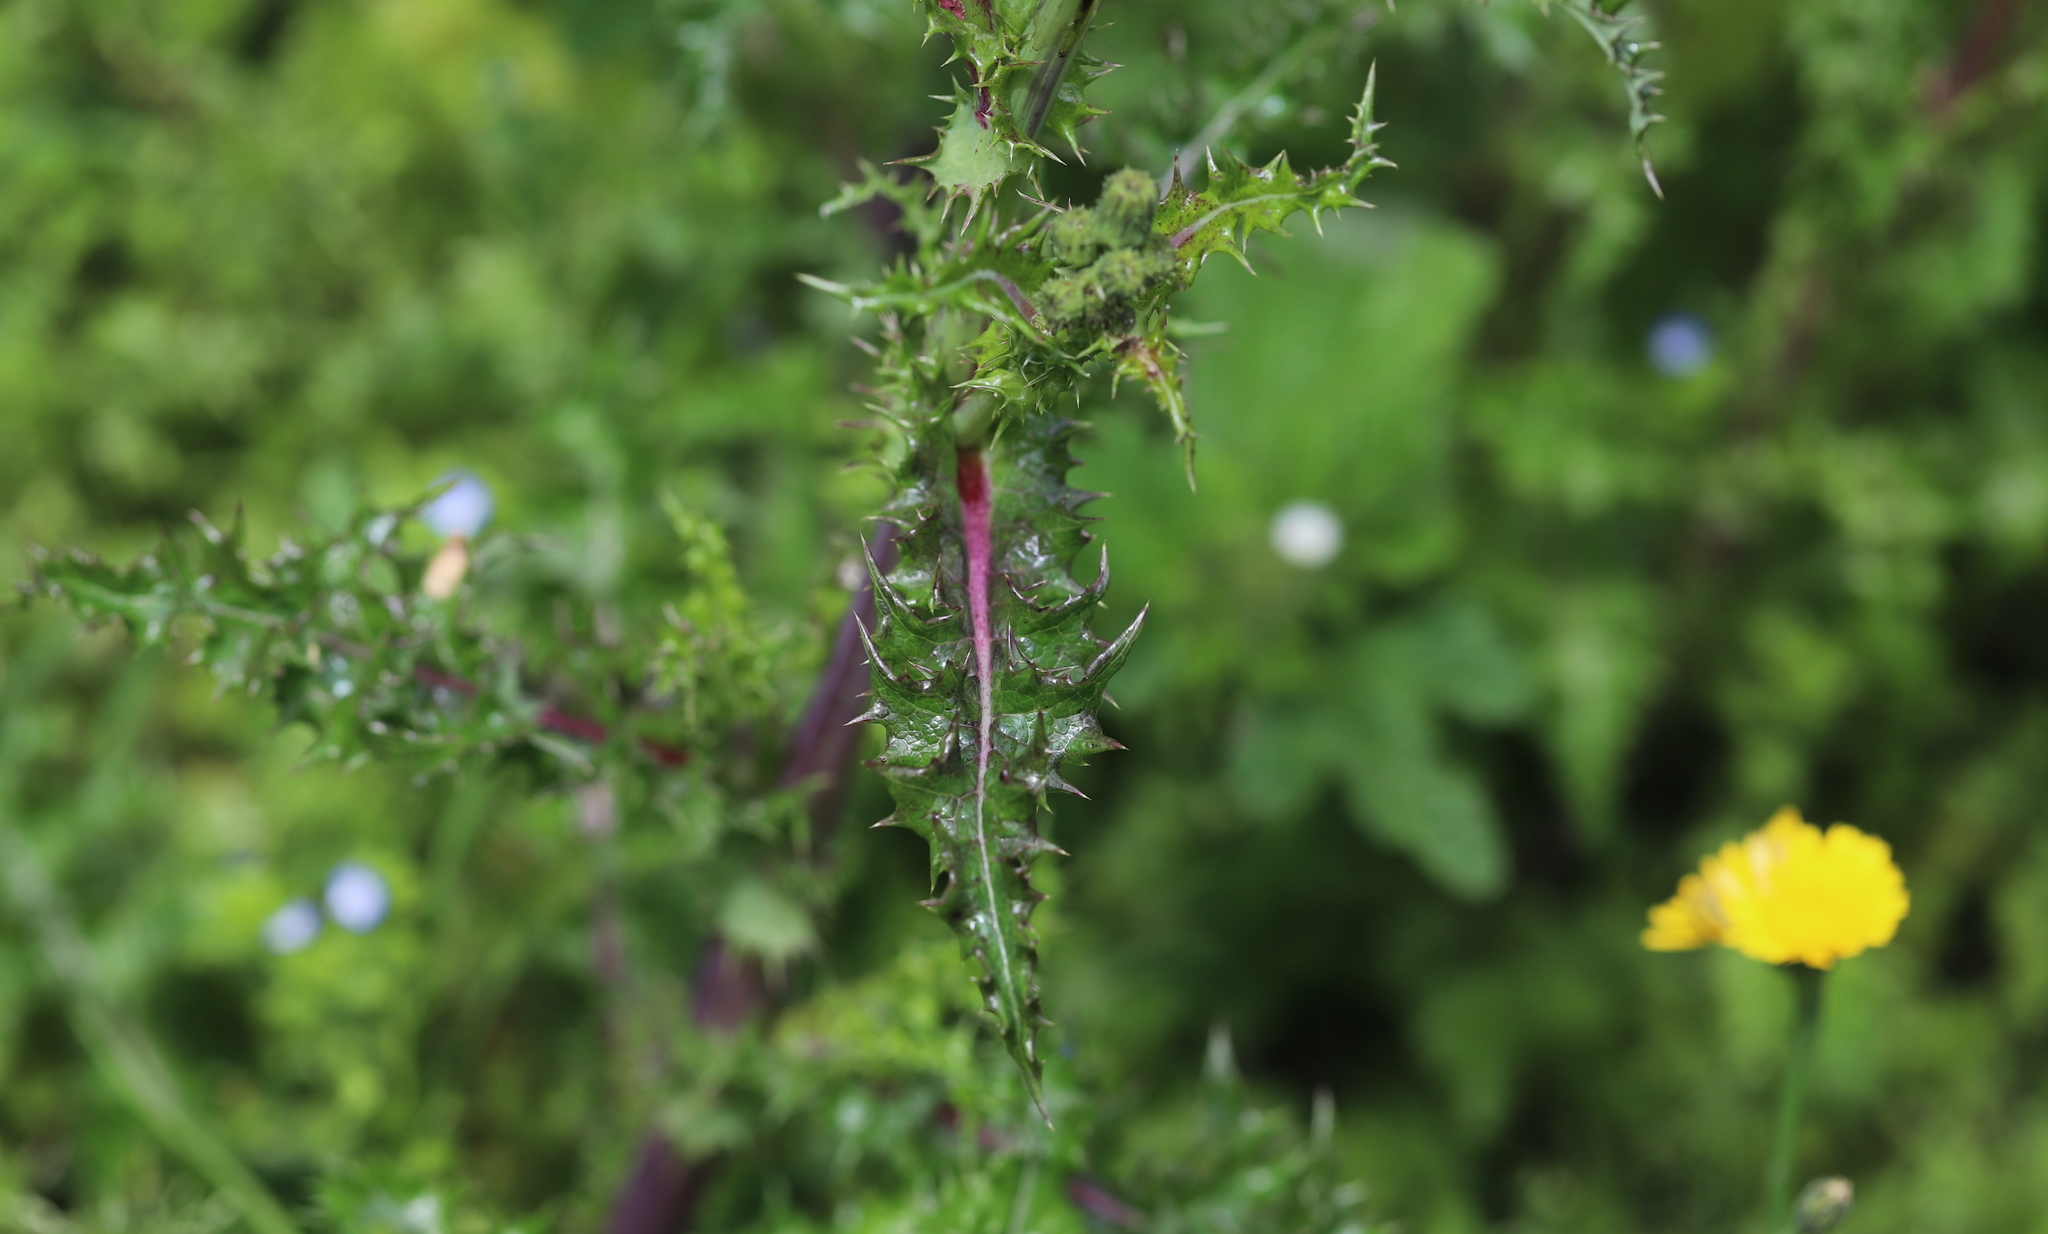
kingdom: Plantae
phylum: Tracheophyta
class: Magnoliopsida
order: Asterales
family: Asteraceae
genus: Sonchus
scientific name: Sonchus asper
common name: Prickly sow-thistle
